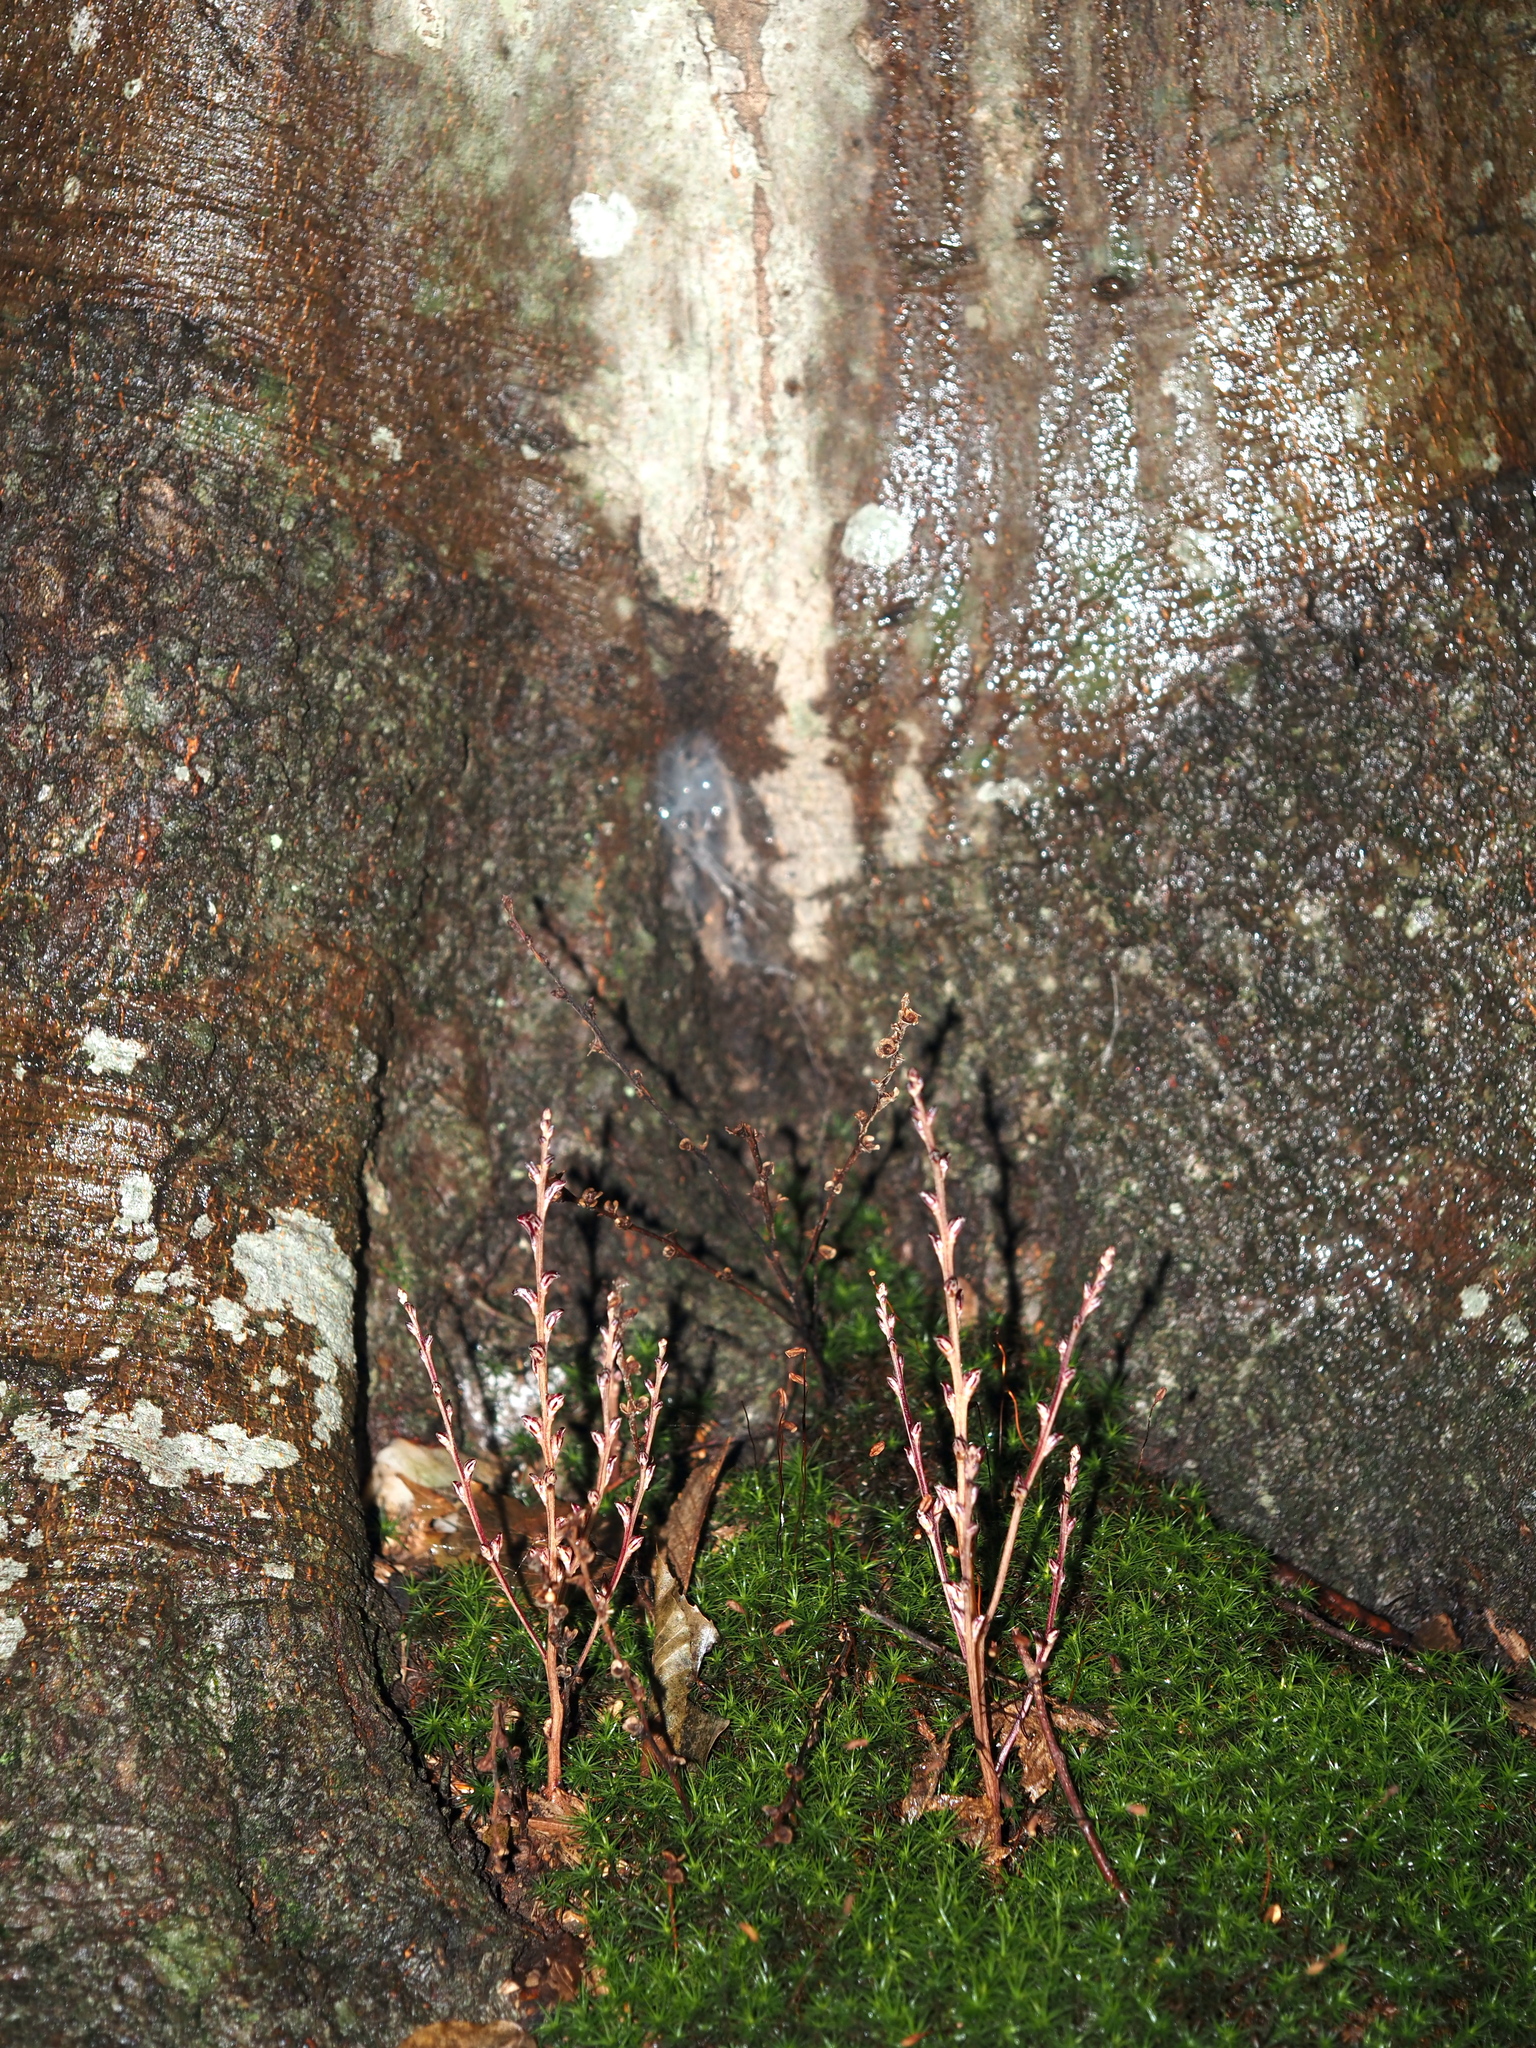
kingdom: Plantae
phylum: Tracheophyta
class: Magnoliopsida
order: Lamiales
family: Orobanchaceae
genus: Epifagus
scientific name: Epifagus virginiana
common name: Beechdrops
